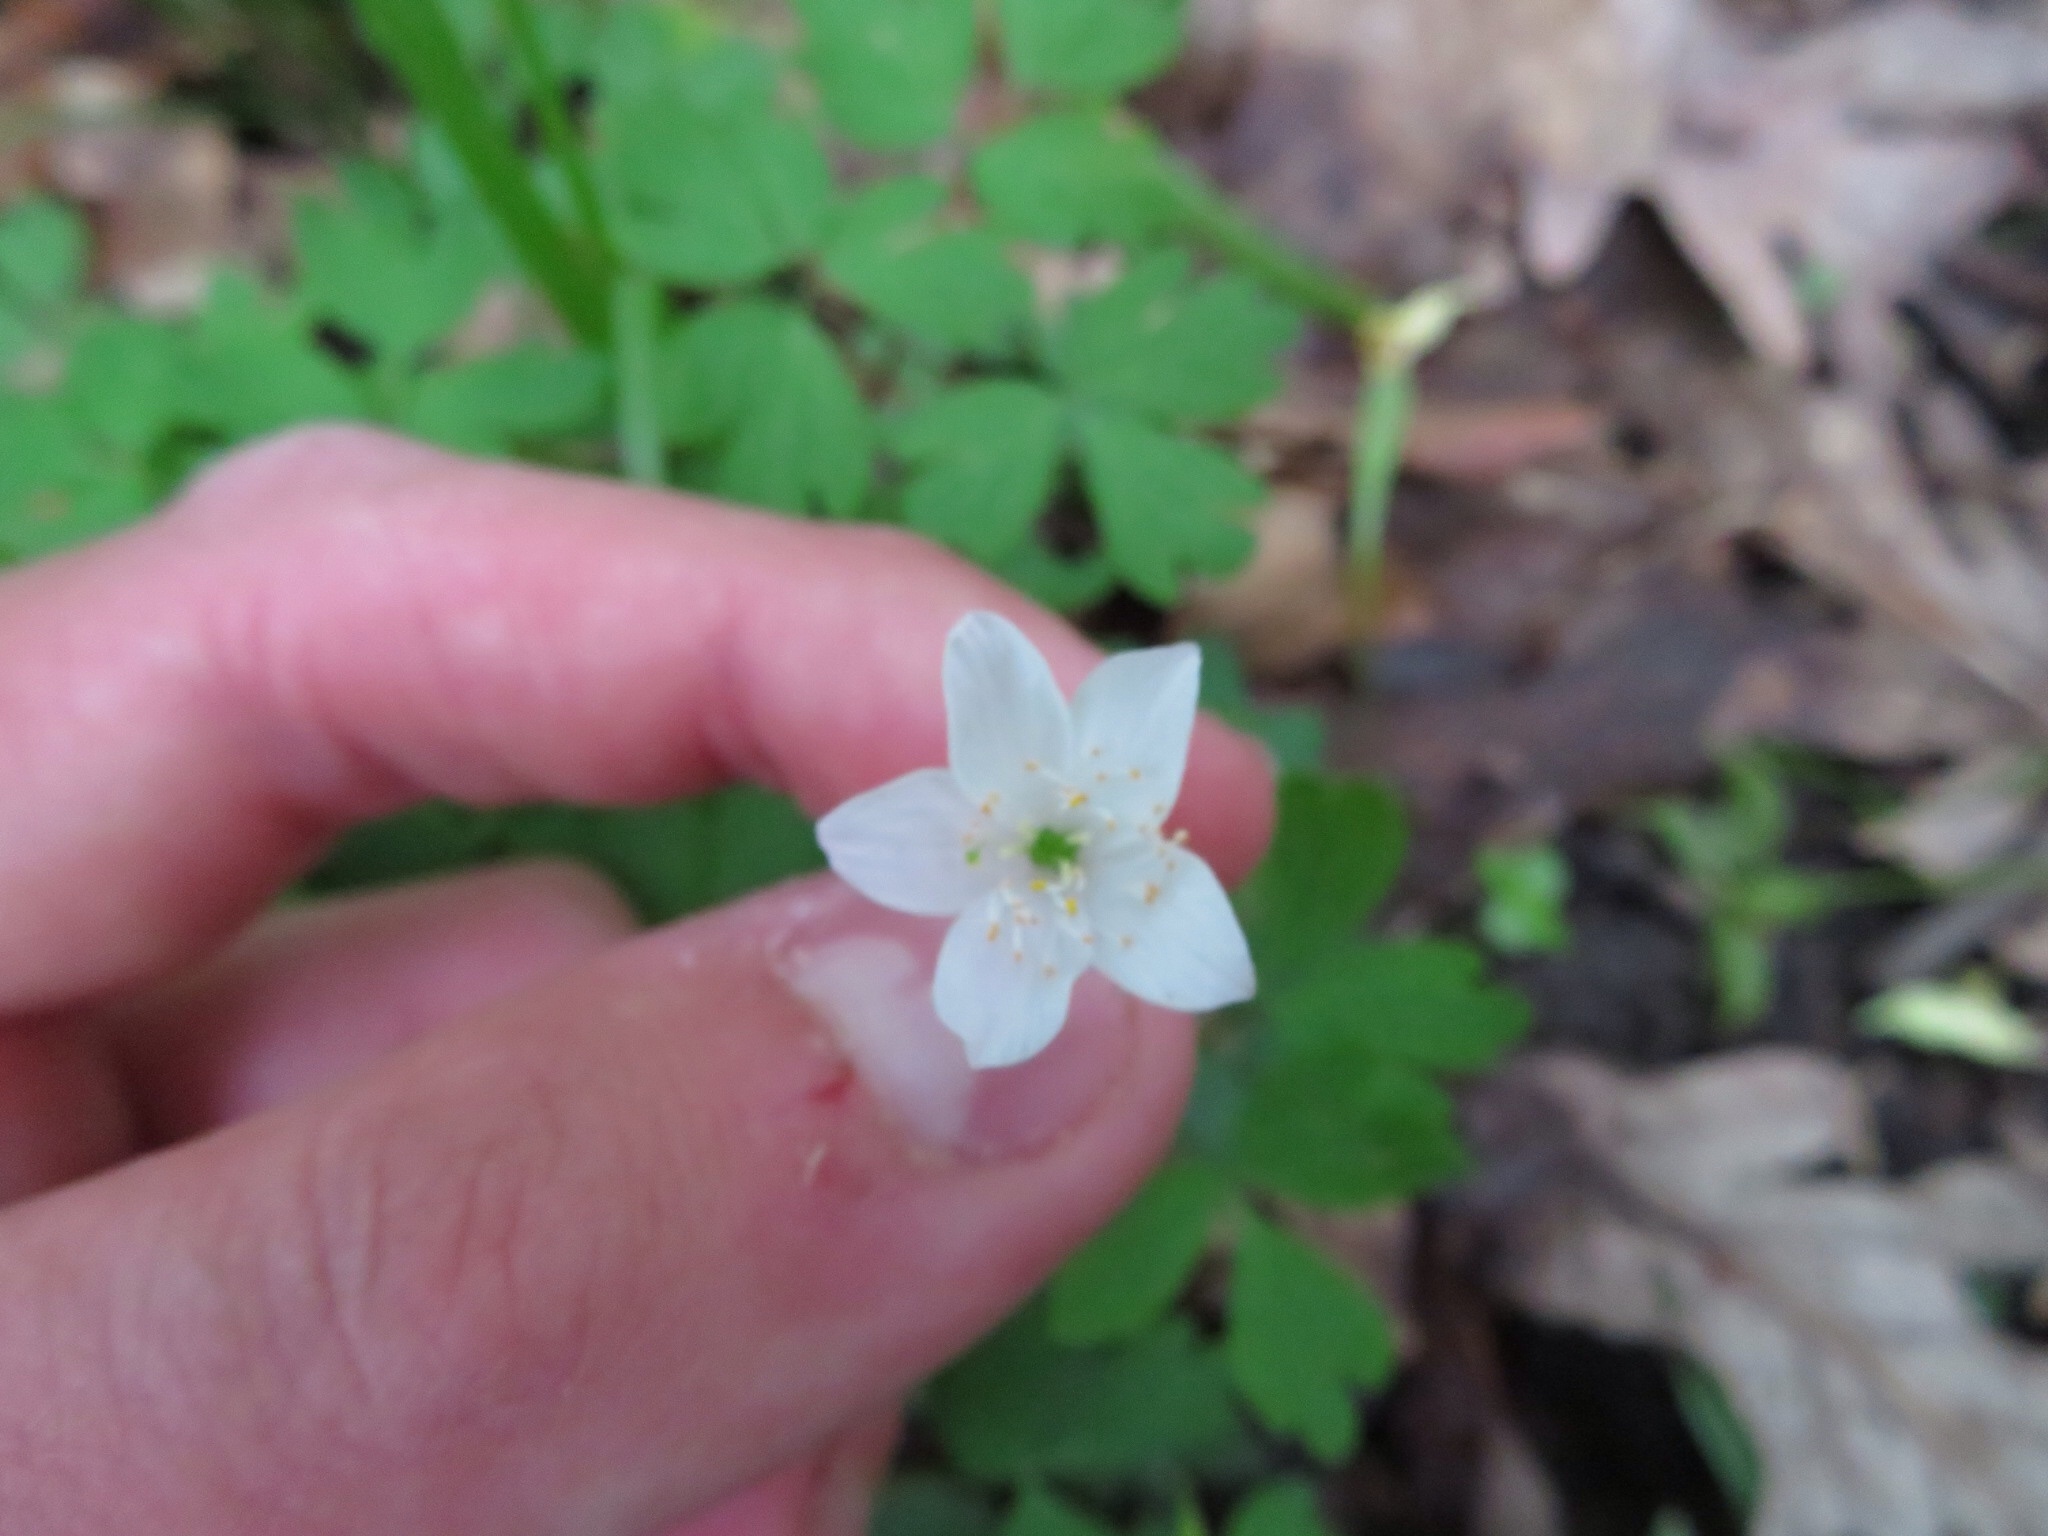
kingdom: Plantae
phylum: Tracheophyta
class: Magnoliopsida
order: Ranunculales
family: Ranunculaceae
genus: Enemion
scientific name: Enemion biternatum
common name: Eastern false rue-anemone
